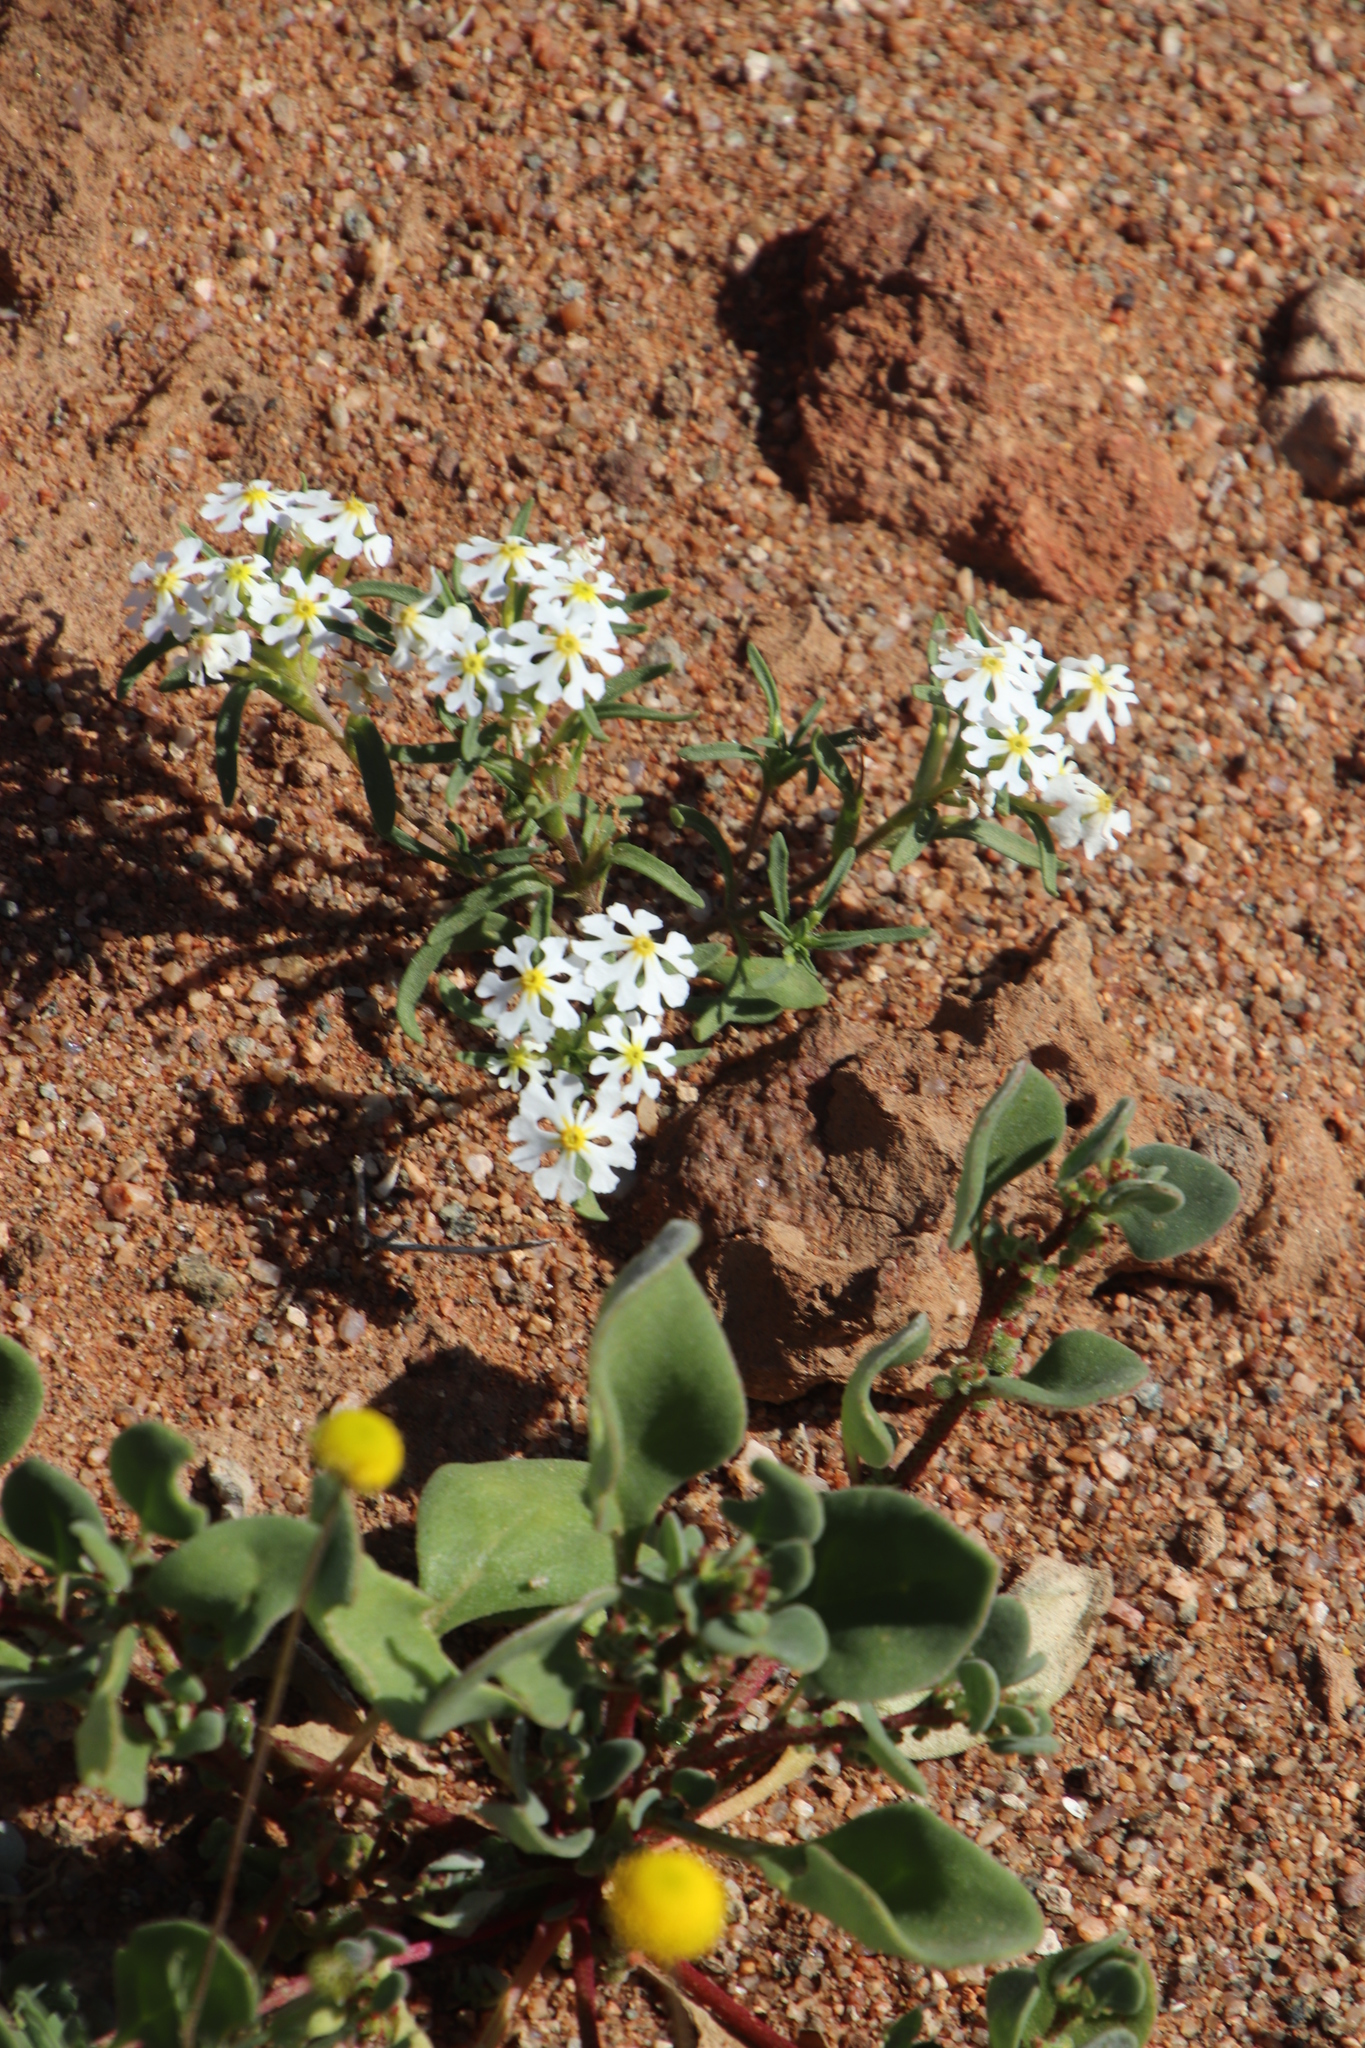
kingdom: Plantae
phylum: Tracheophyta
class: Magnoliopsida
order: Lamiales
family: Scrophulariaceae
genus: Zaluzianskya
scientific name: Zaluzianskya affinis
